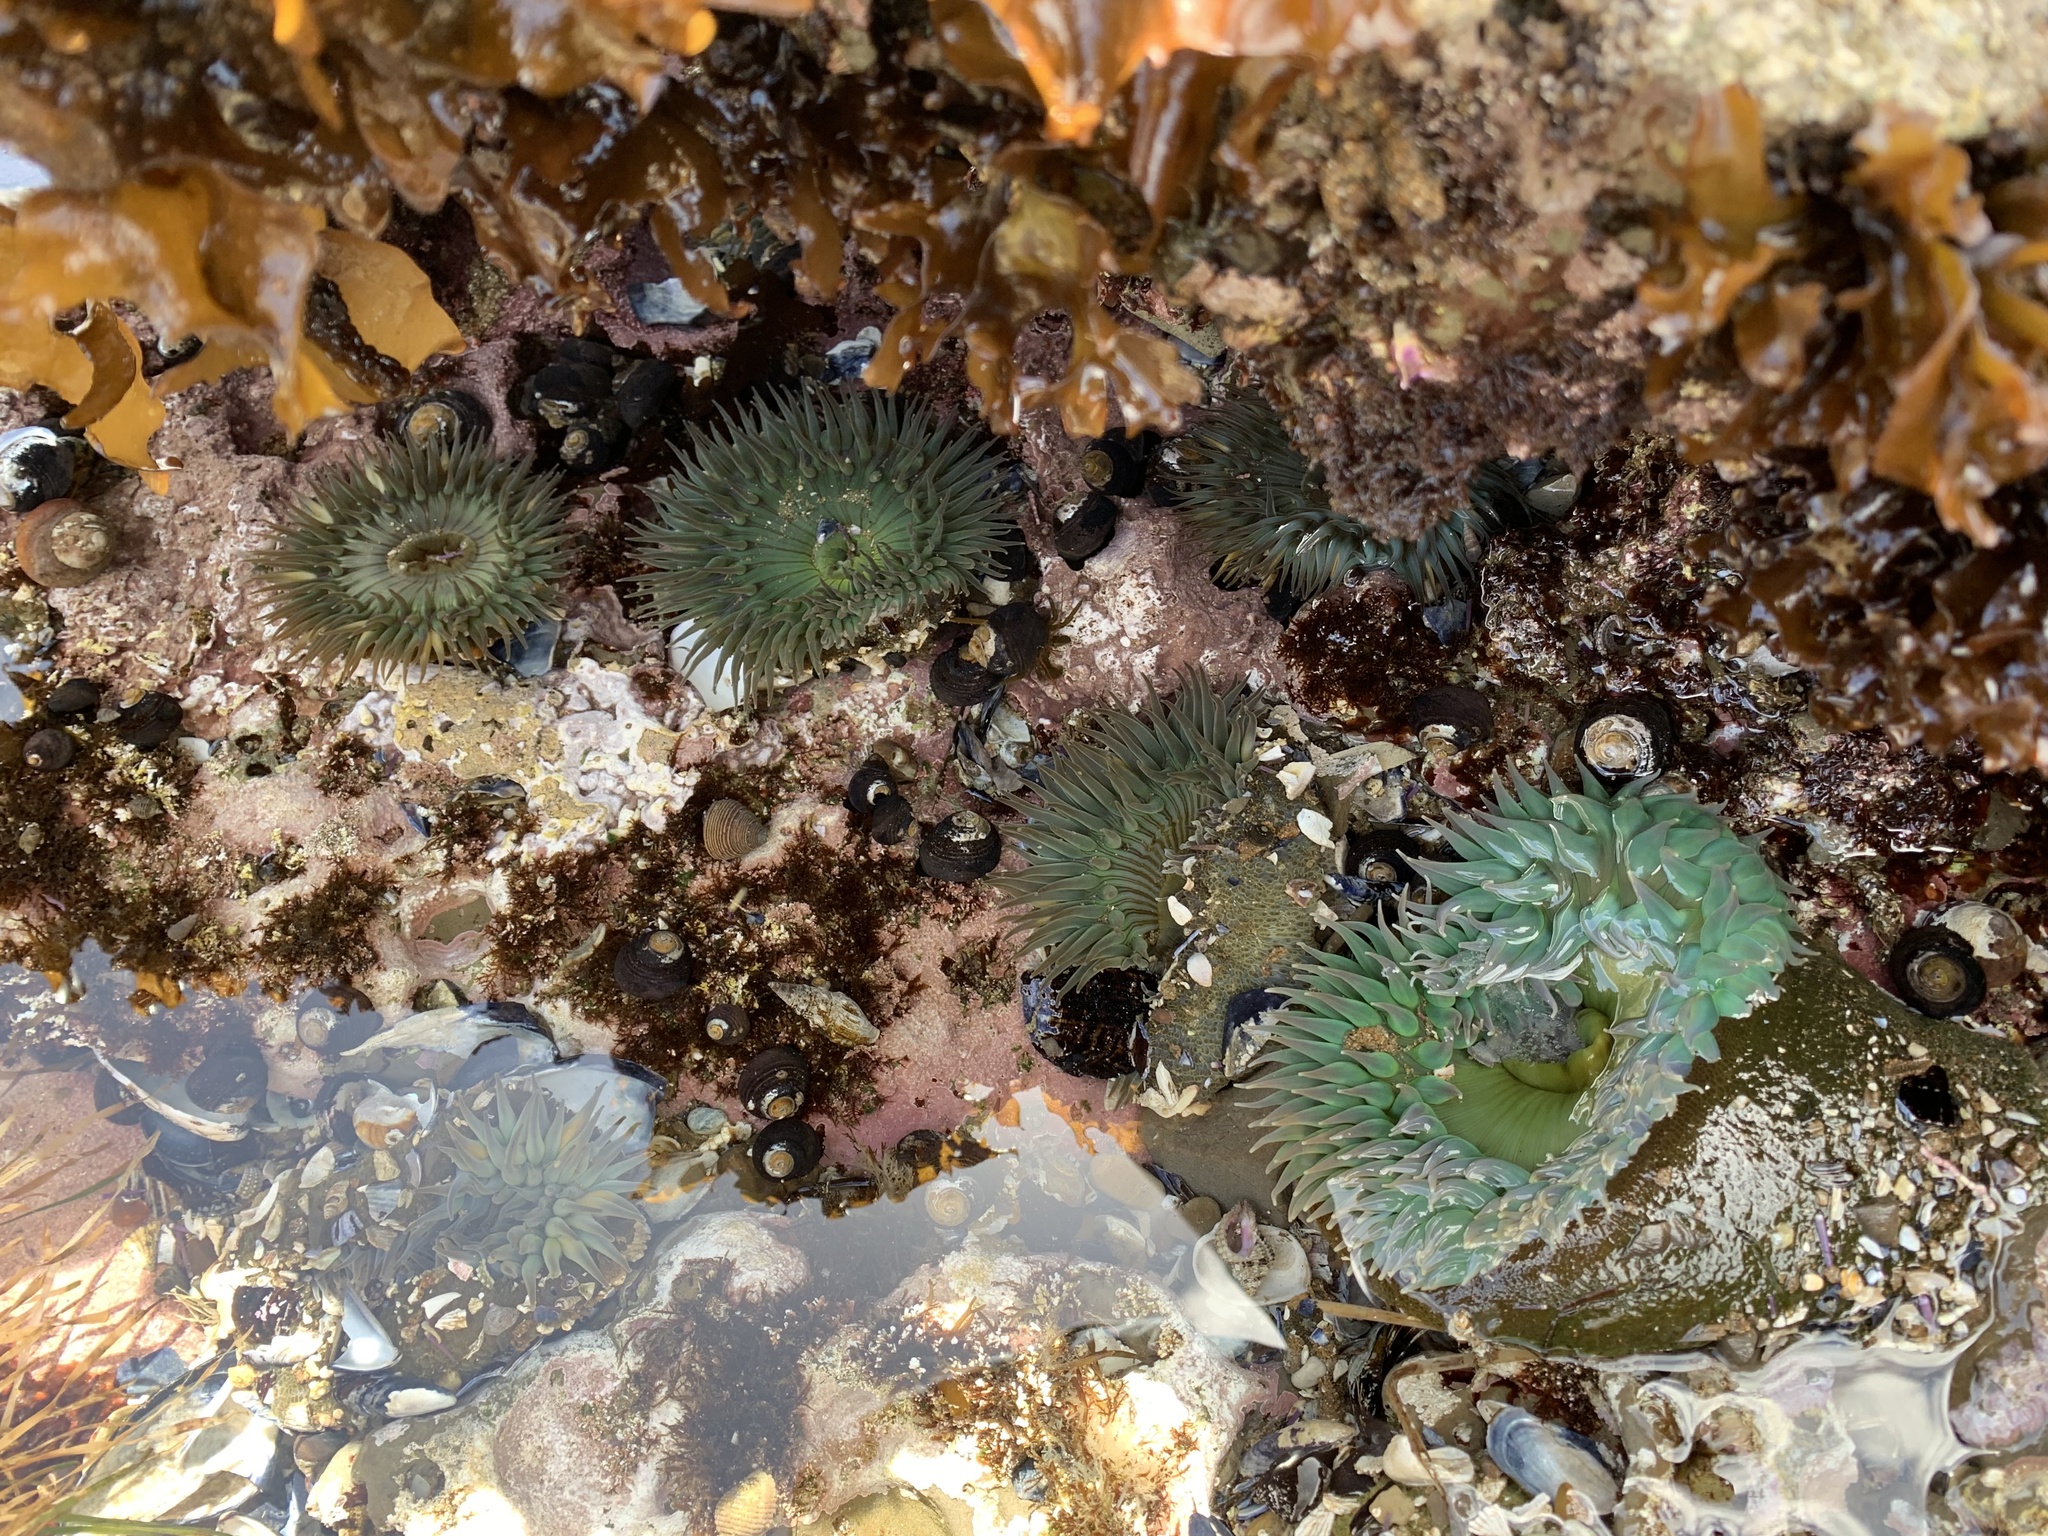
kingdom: Animalia
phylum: Cnidaria
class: Anthozoa
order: Actiniaria
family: Actiniidae
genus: Anthopleura
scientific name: Anthopleura xanthogrammica
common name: Giant green anemone
